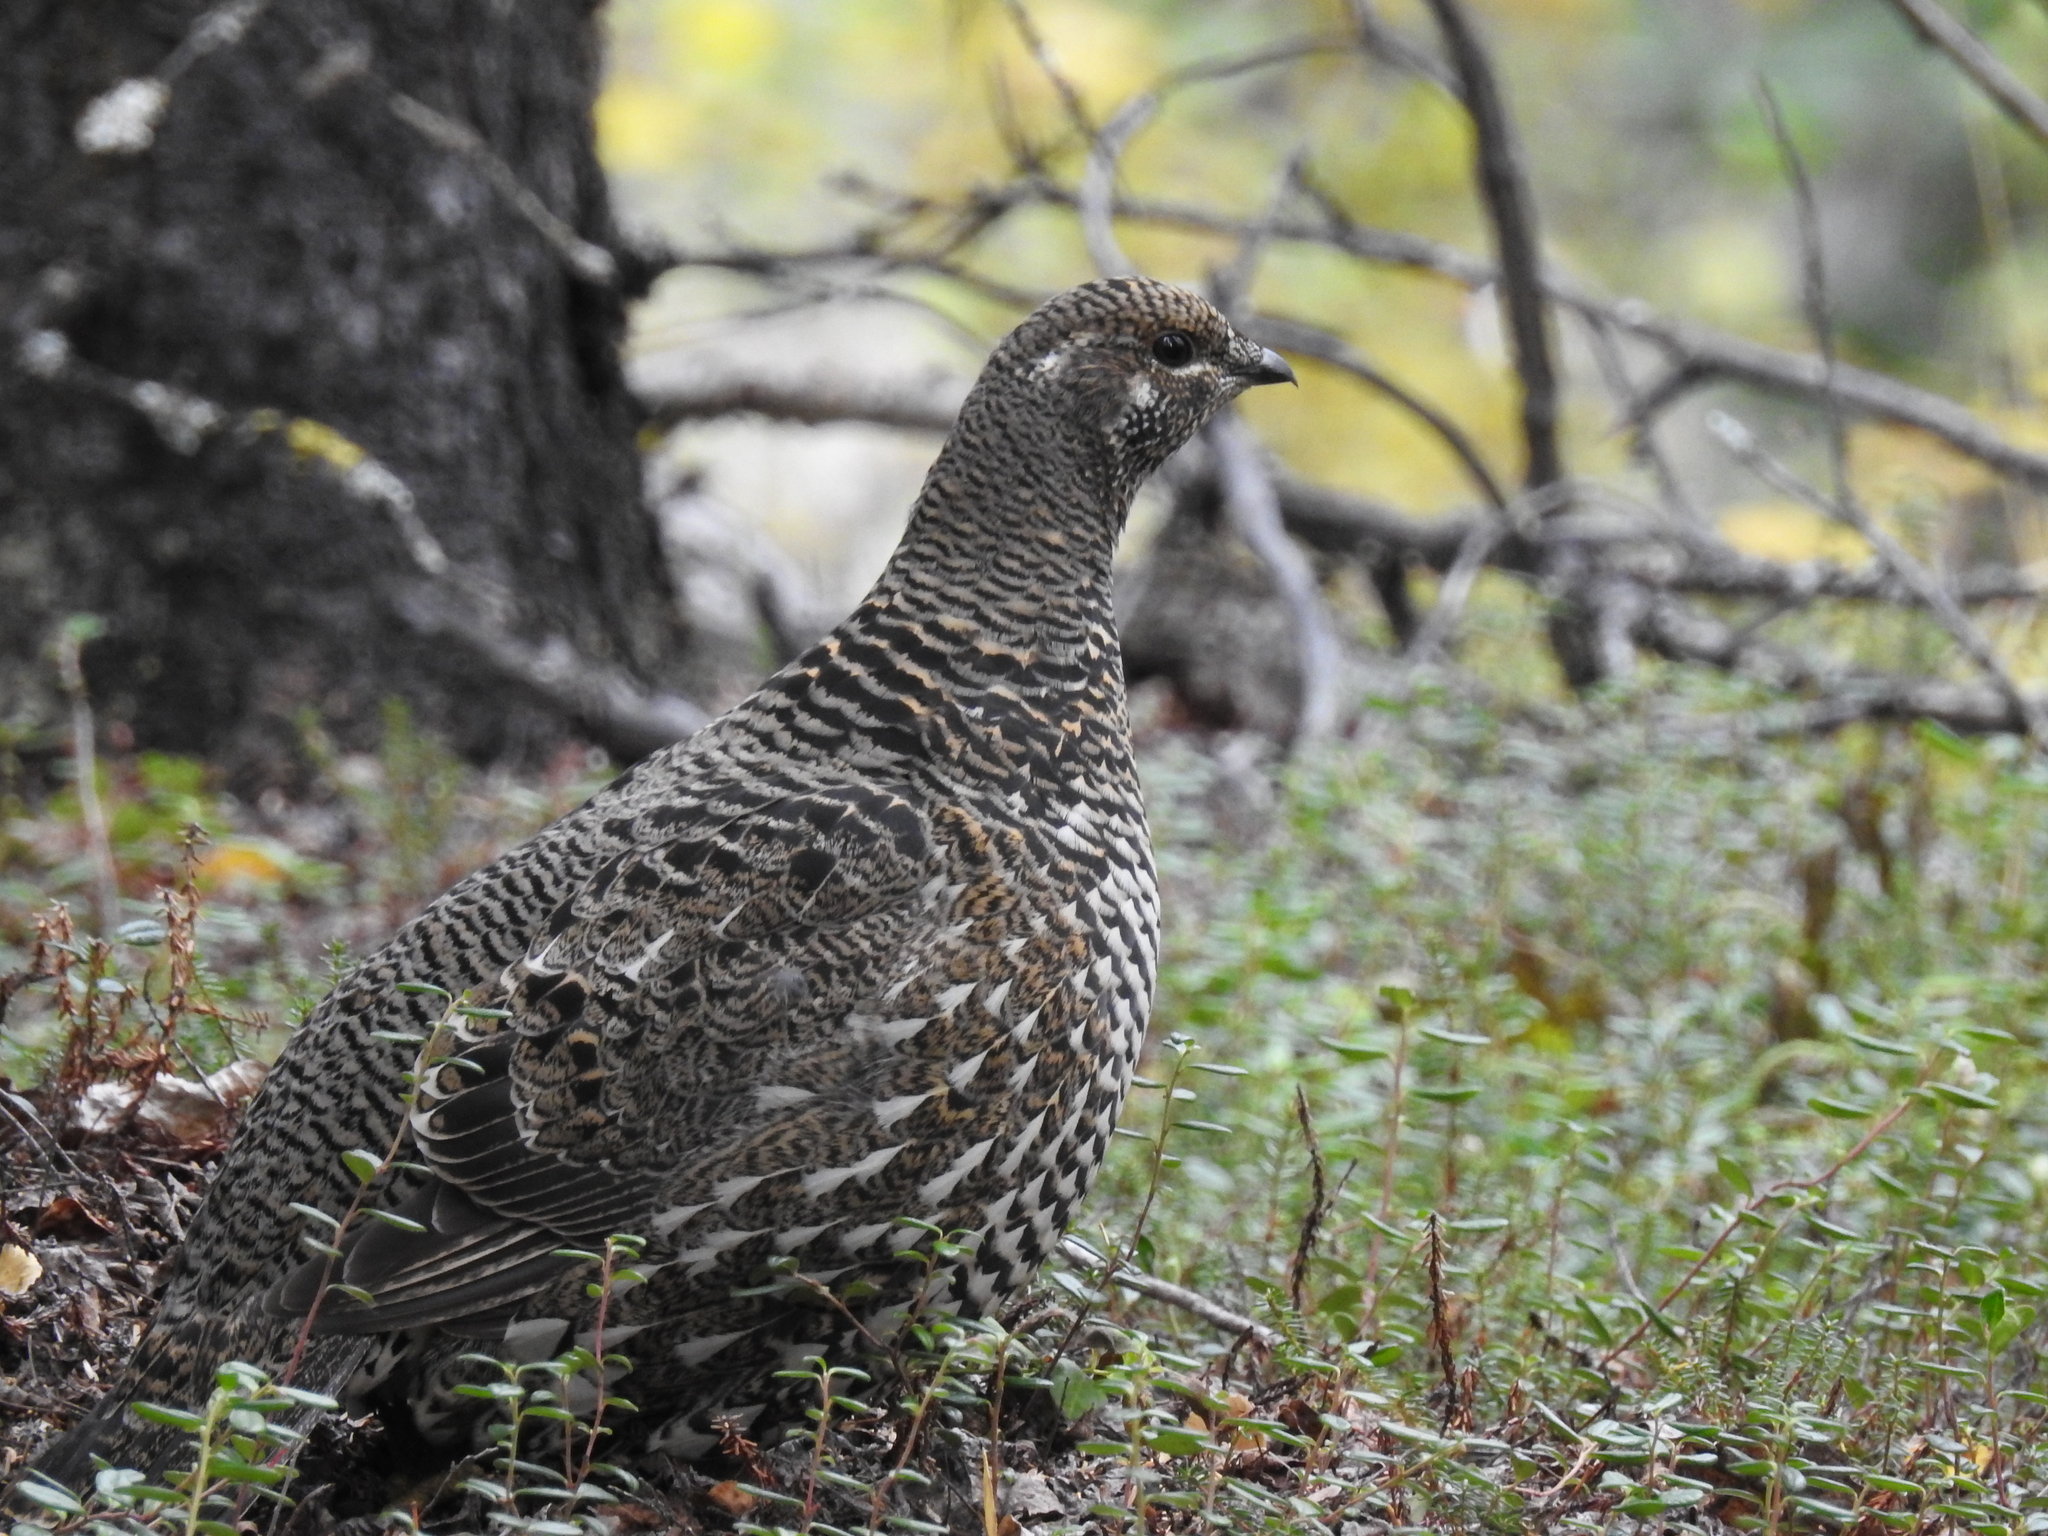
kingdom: Animalia
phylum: Chordata
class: Aves
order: Galliformes
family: Phasianidae
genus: Canachites
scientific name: Canachites canadensis
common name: Spruce grouse
